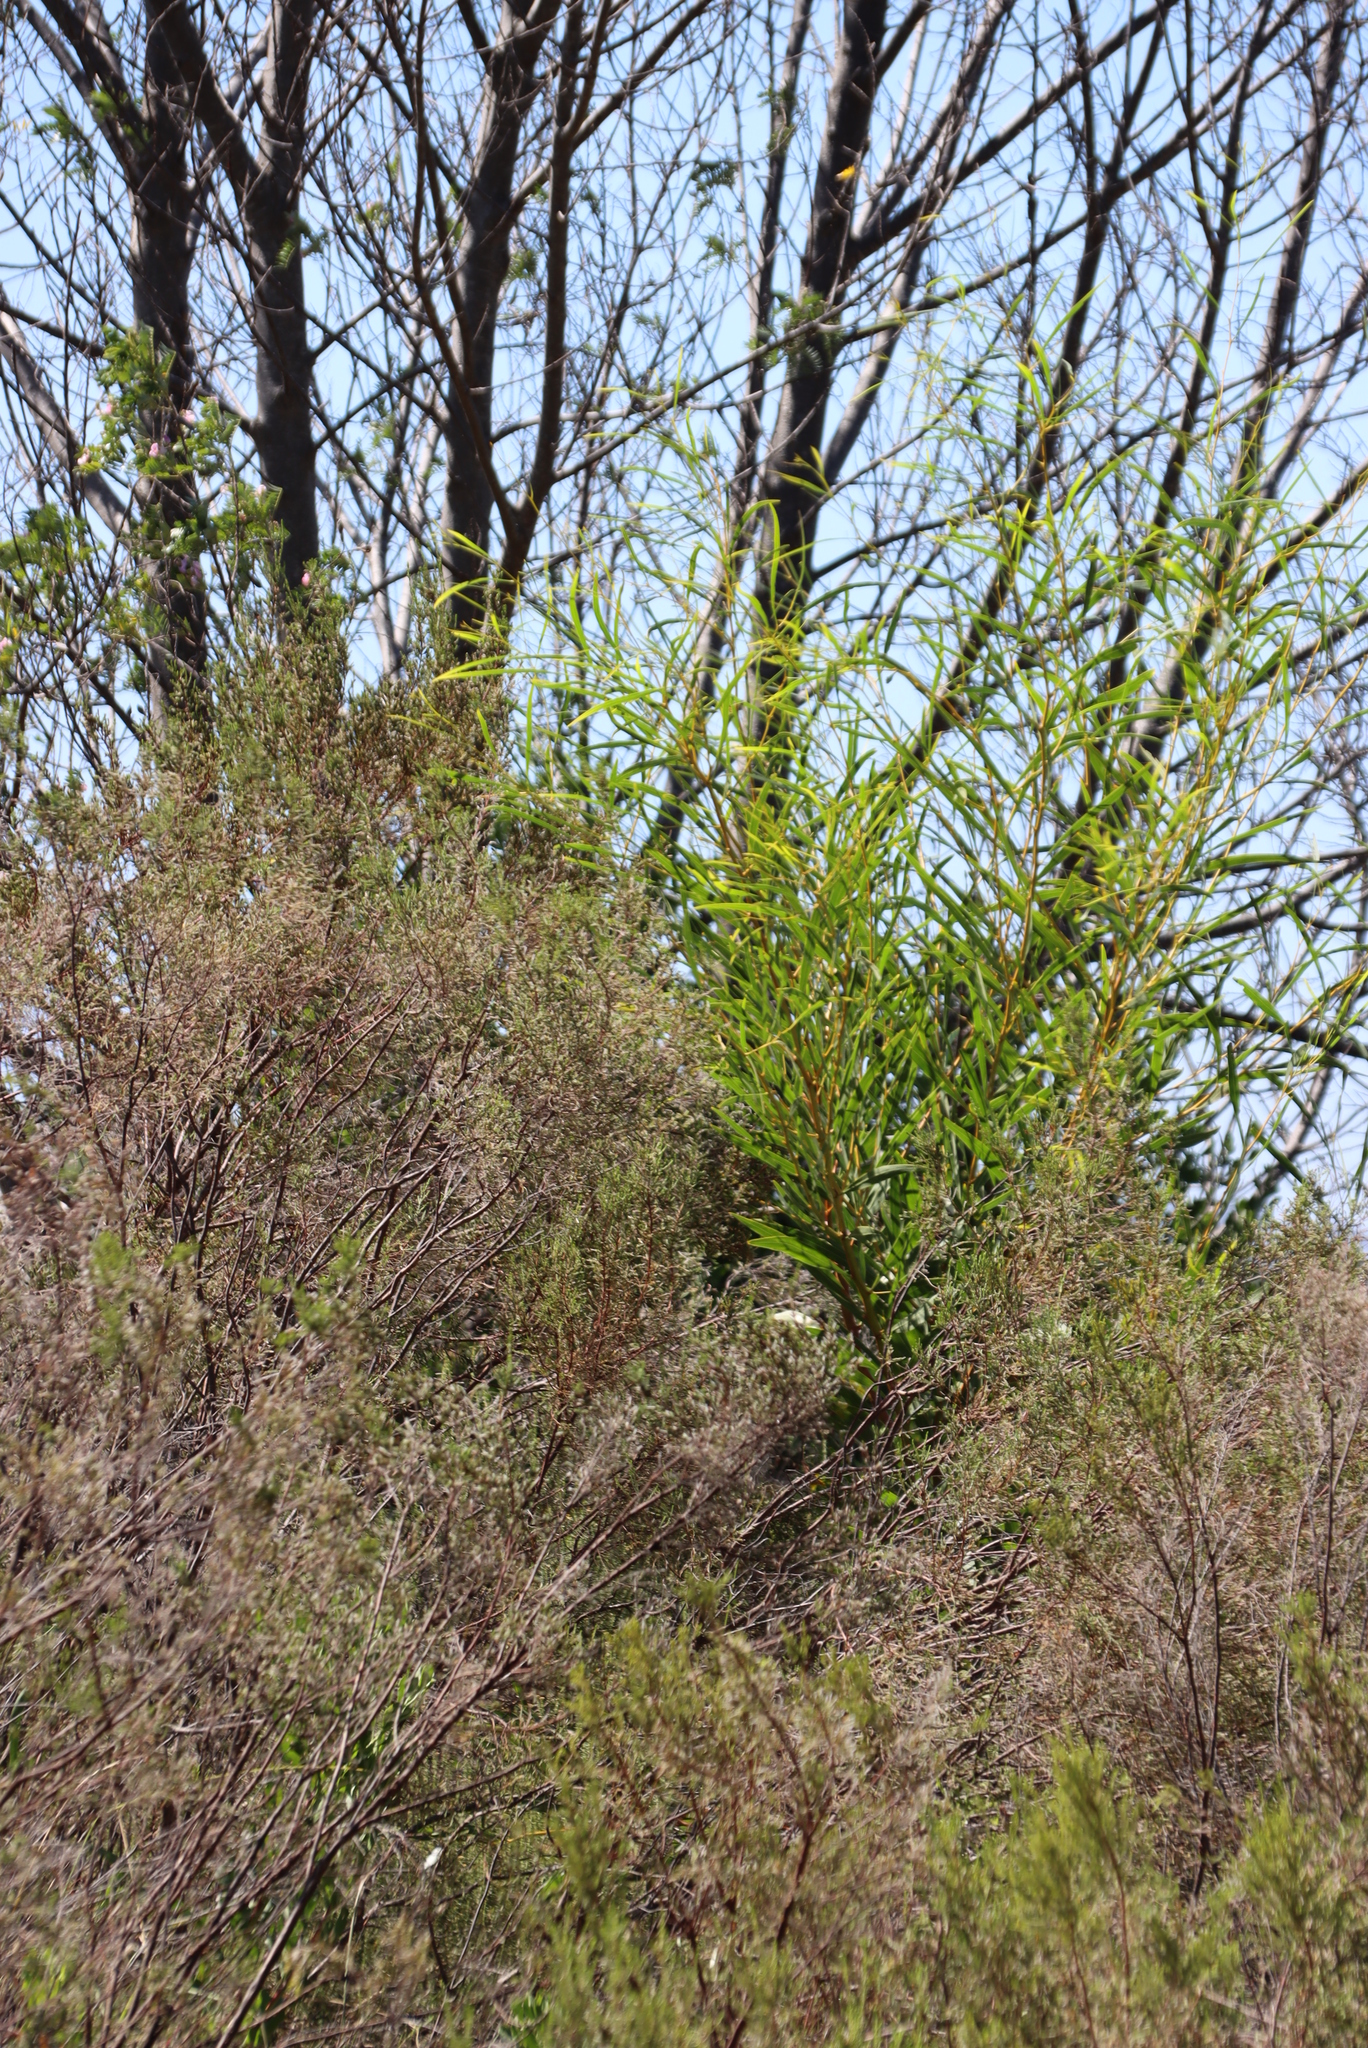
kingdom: Plantae
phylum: Tracheophyta
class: Magnoliopsida
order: Fabales
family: Fabaceae
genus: Acacia
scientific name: Acacia saligna
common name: Orange wattle
